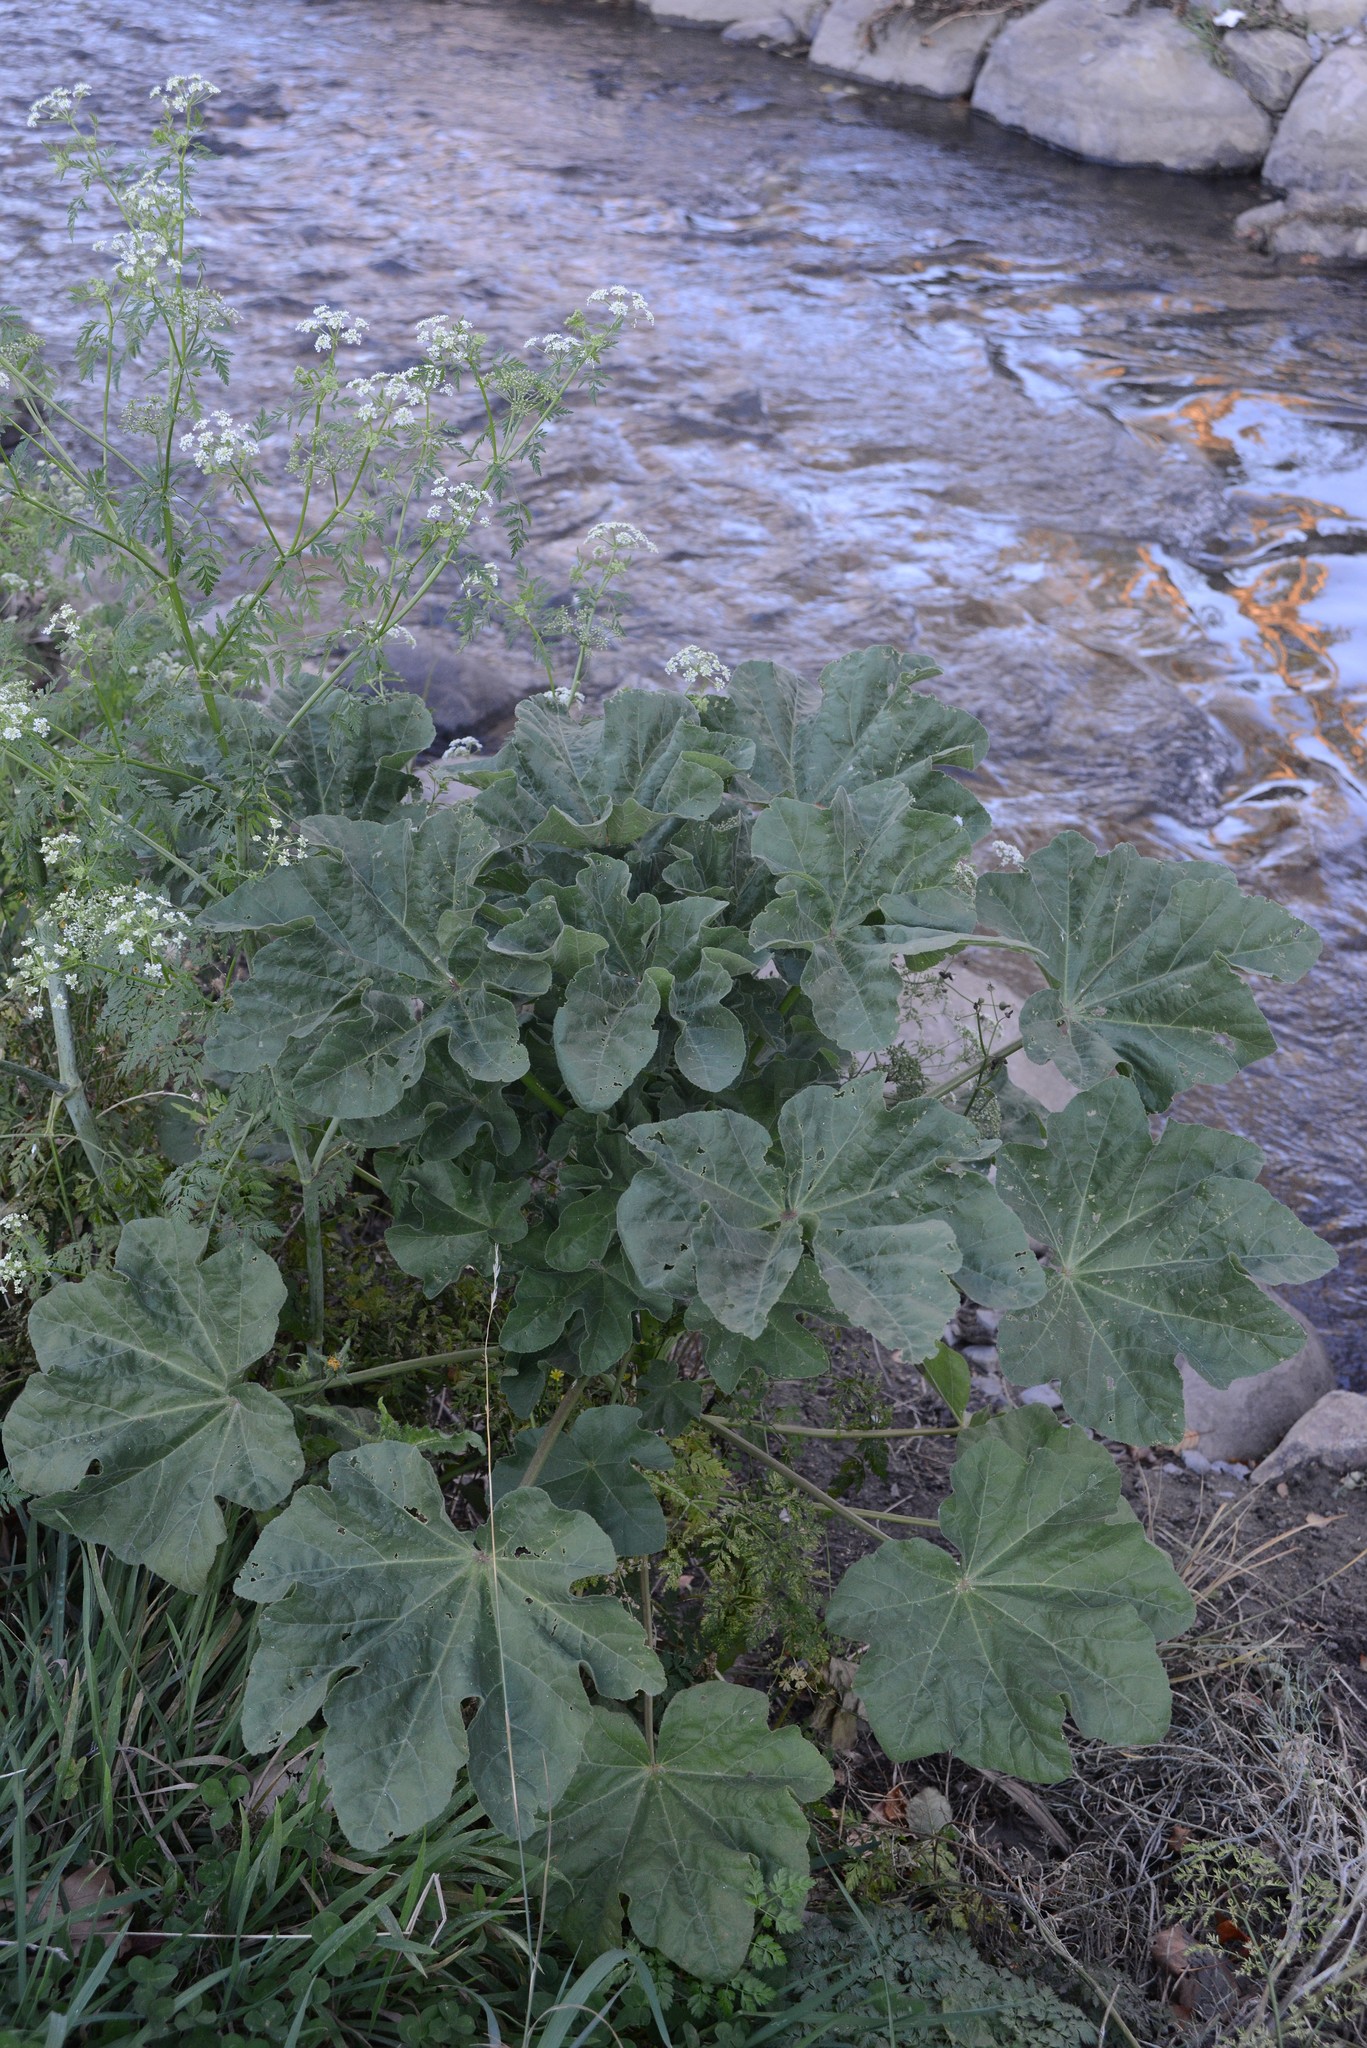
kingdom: Plantae
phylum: Tracheophyta
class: Magnoliopsida
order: Malvales
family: Malvaceae
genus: Malva
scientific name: Malva arborea
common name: Tree mallow
